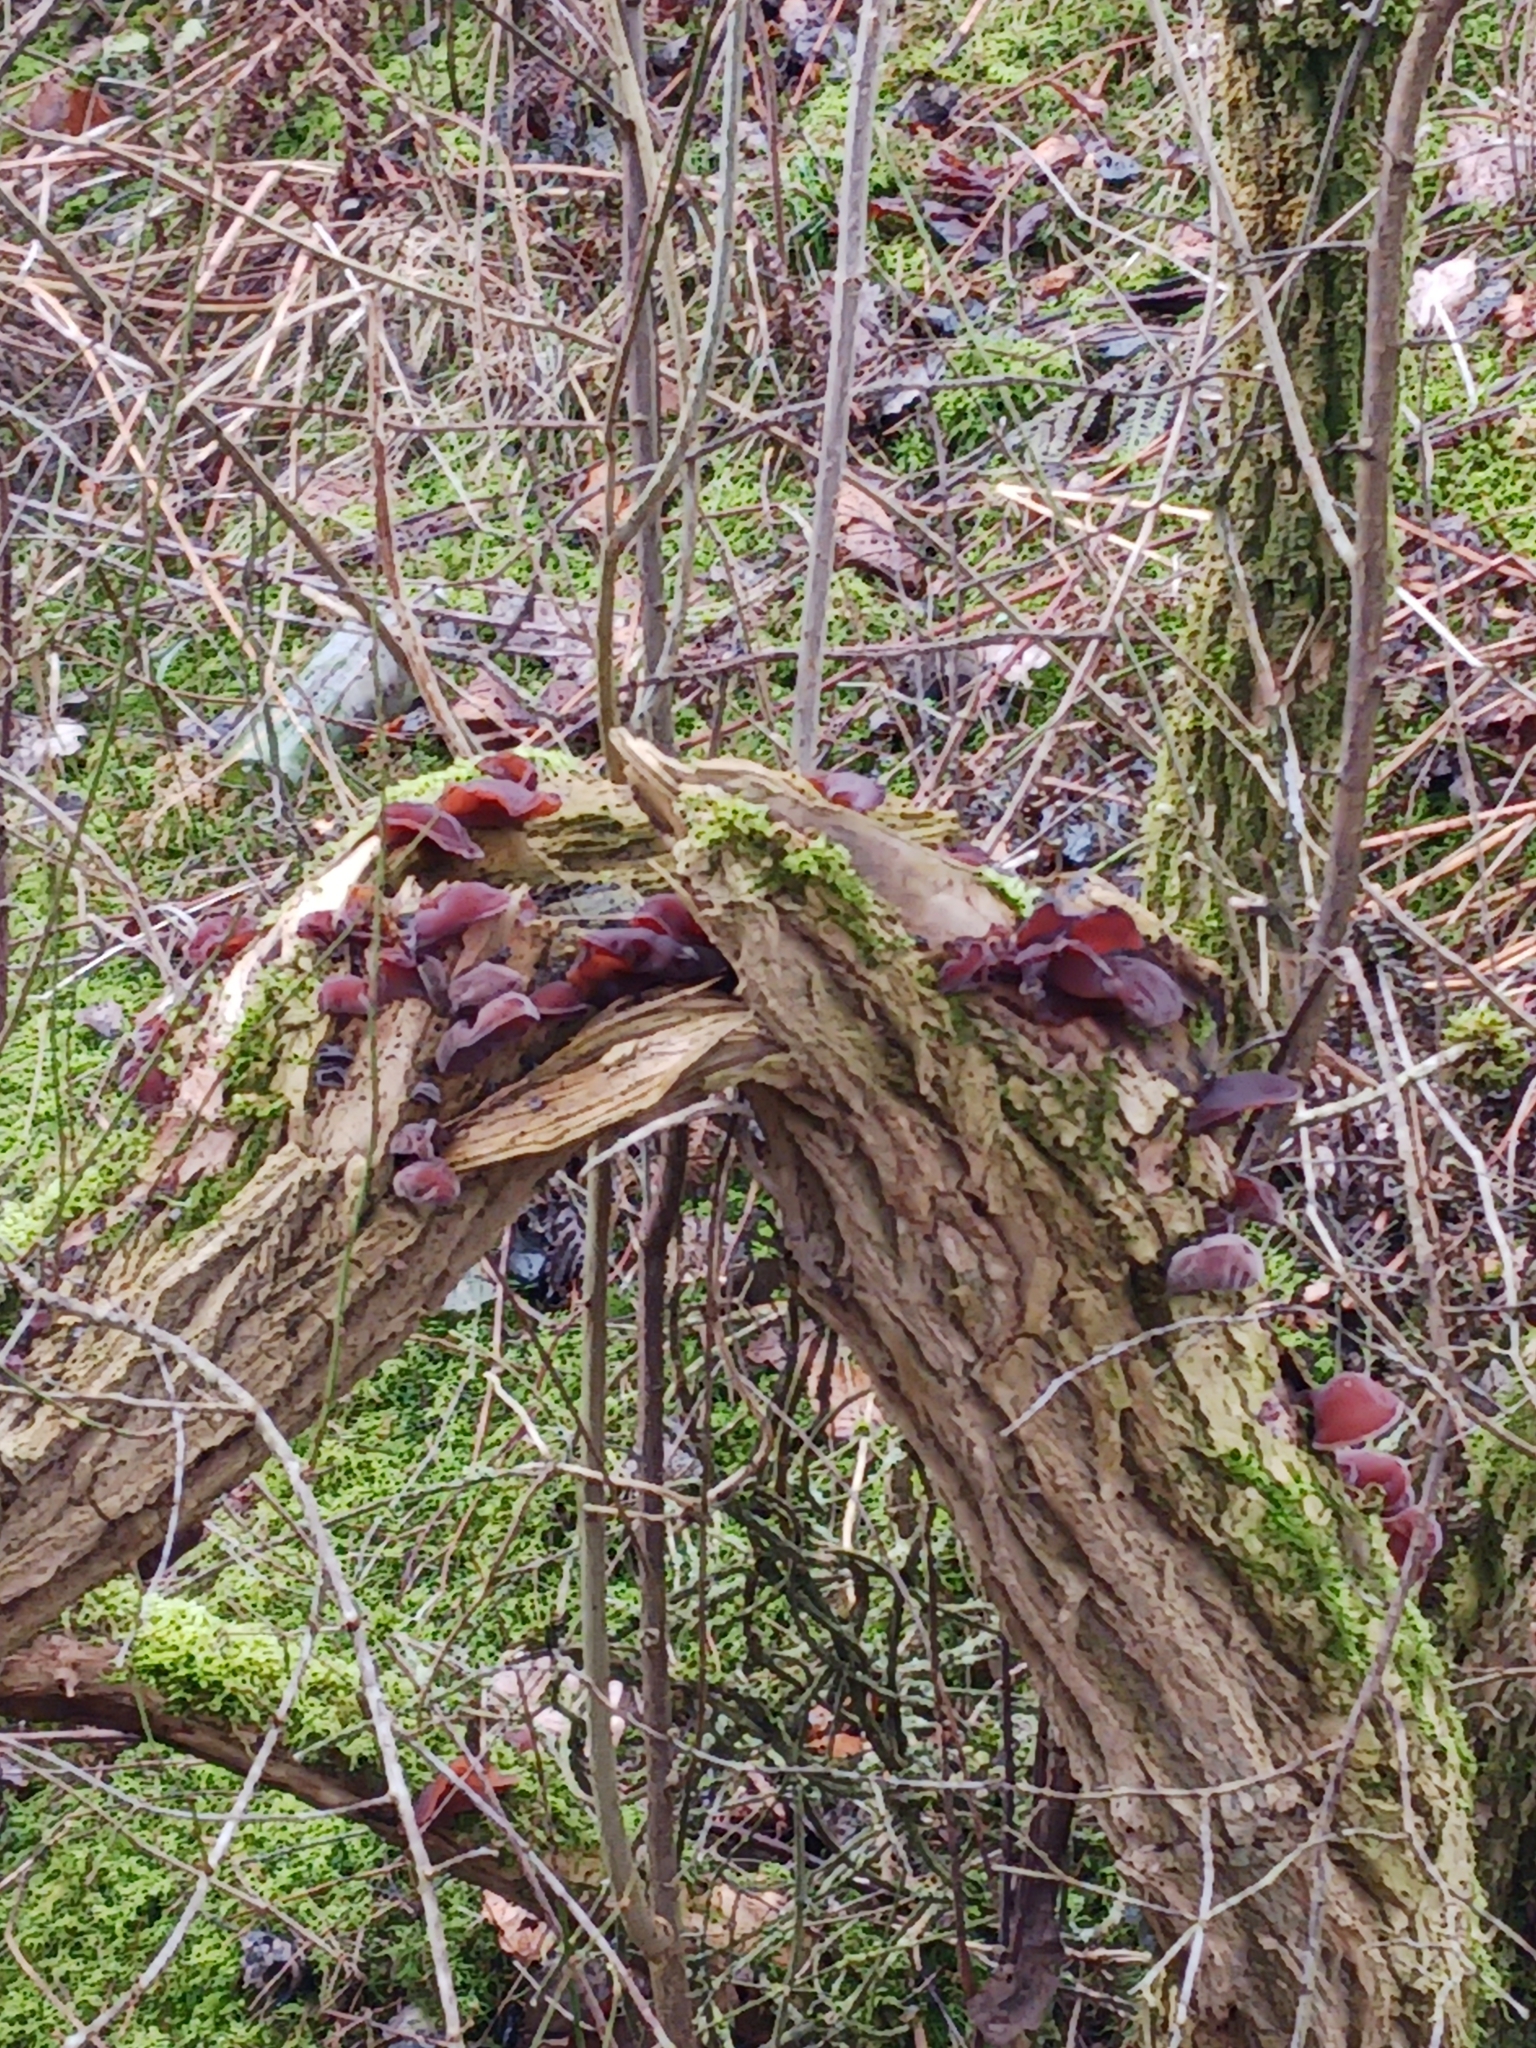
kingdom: Fungi
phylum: Basidiomycota
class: Agaricomycetes
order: Auriculariales
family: Auriculariaceae
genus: Auricularia
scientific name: Auricularia auricula-judae
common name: Jelly ear
